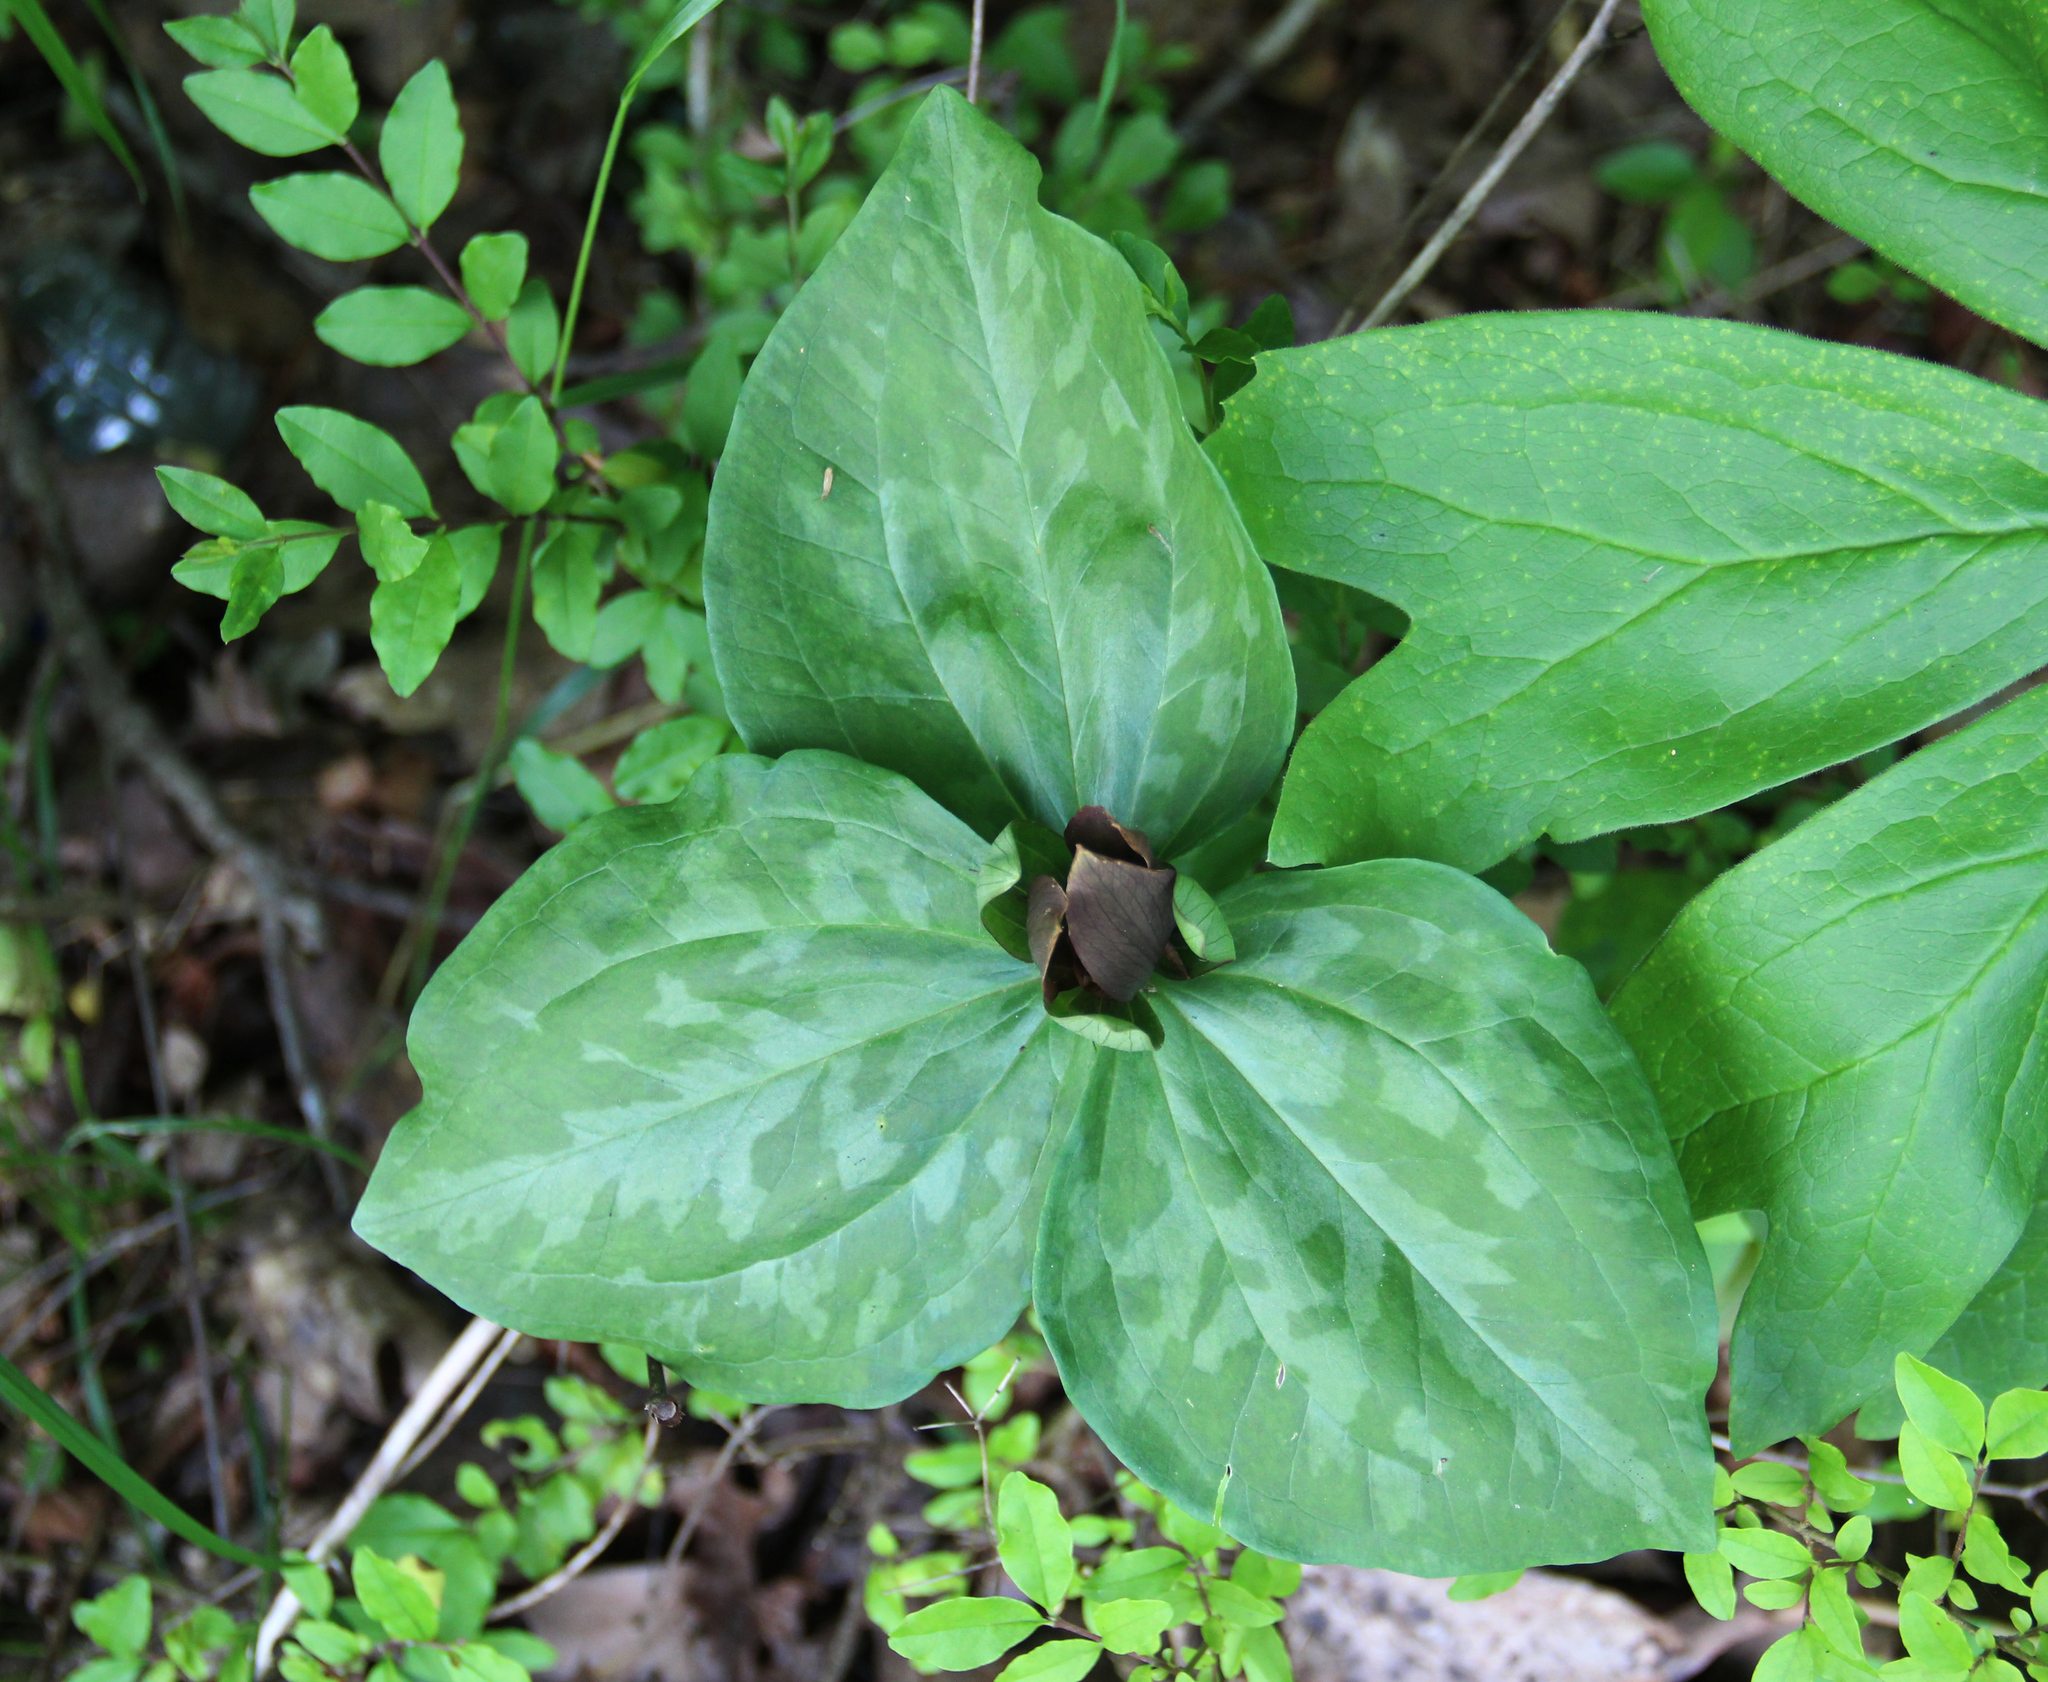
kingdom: Plantae
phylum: Tracheophyta
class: Liliopsida
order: Liliales
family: Melanthiaceae
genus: Trillium
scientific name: Trillium cuneatum
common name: Cuneate trillium
